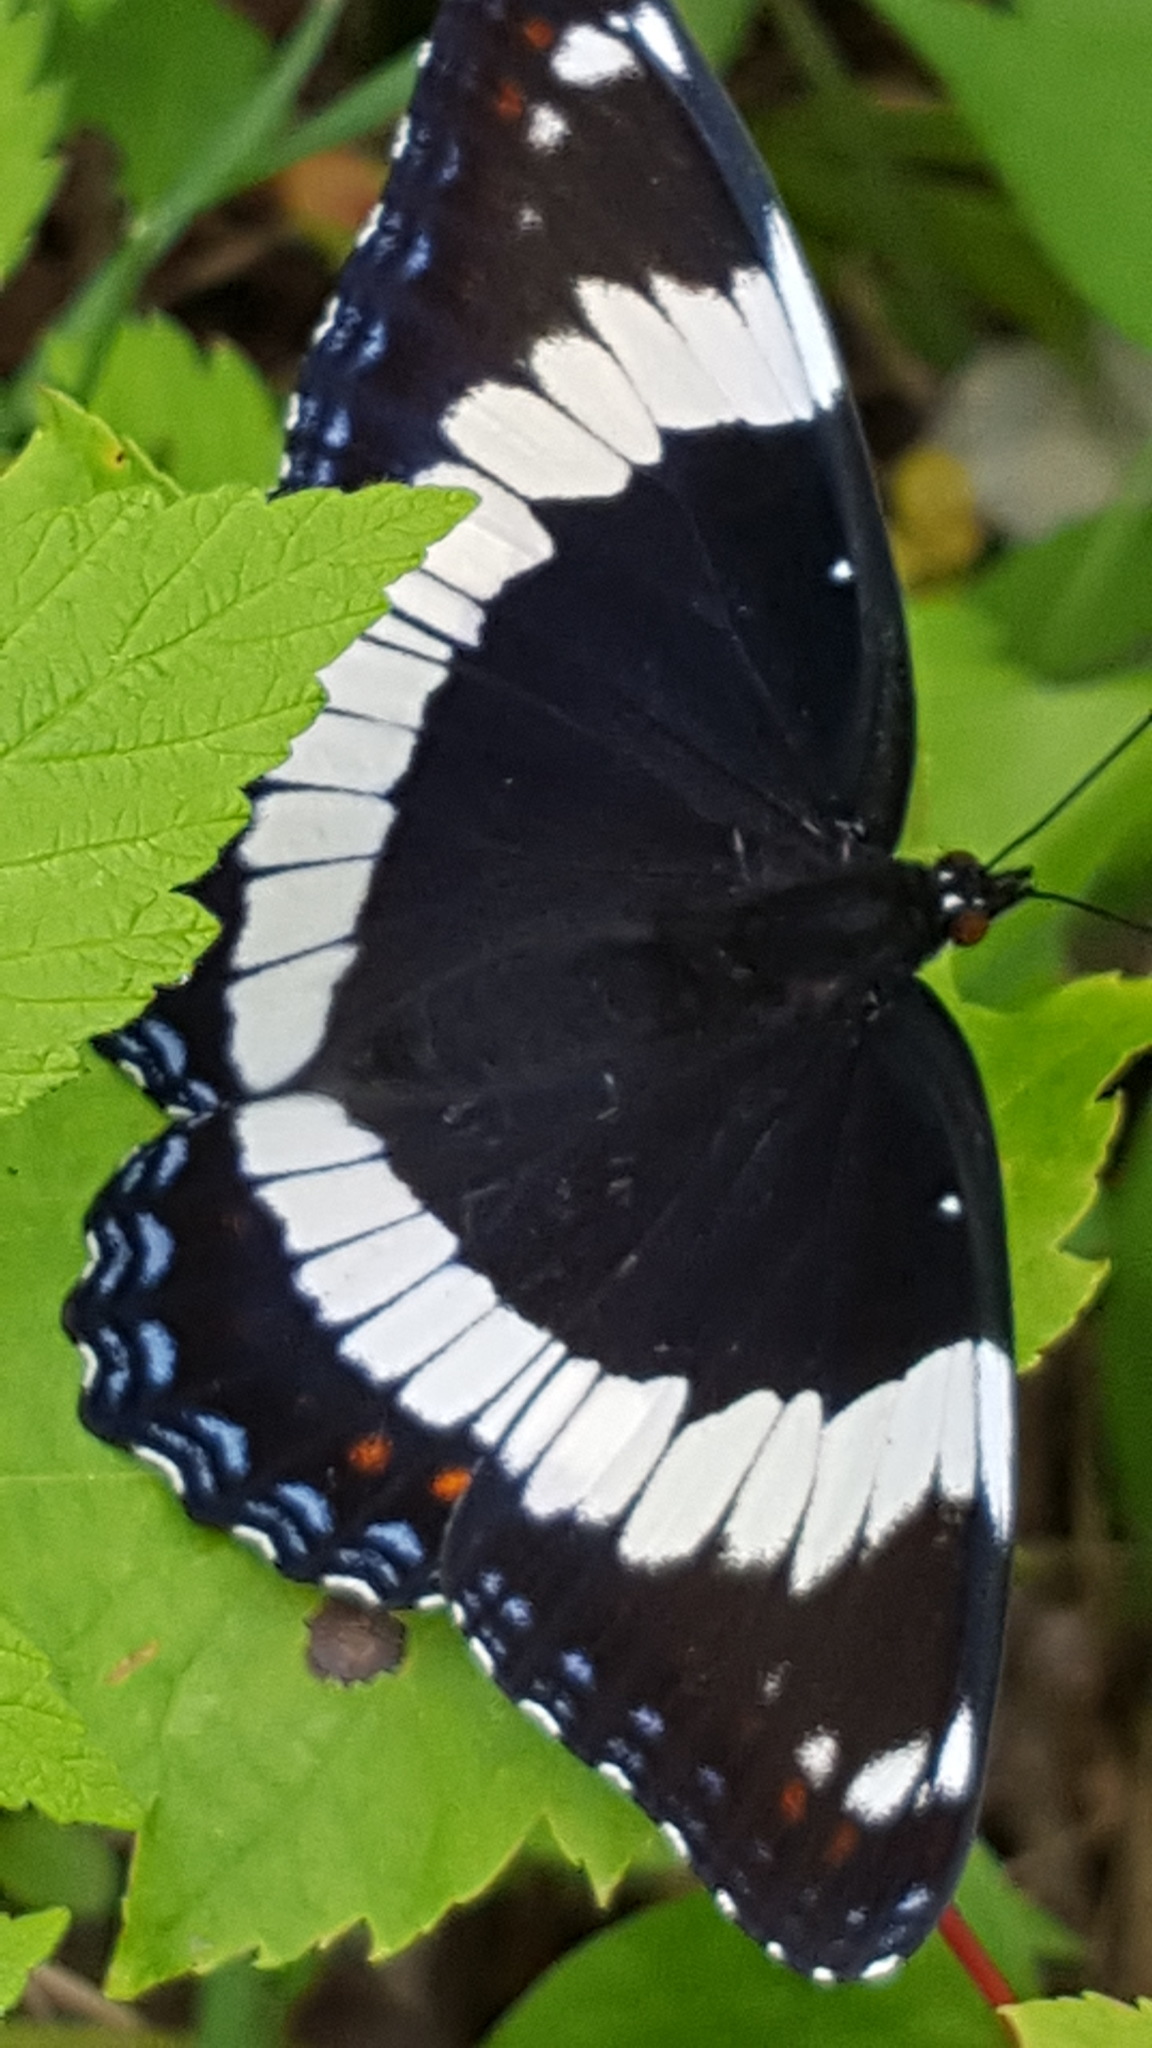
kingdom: Animalia
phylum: Arthropoda
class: Insecta
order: Lepidoptera
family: Nymphalidae
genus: Limenitis
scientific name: Limenitis arthemis
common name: Red-spotted admiral
